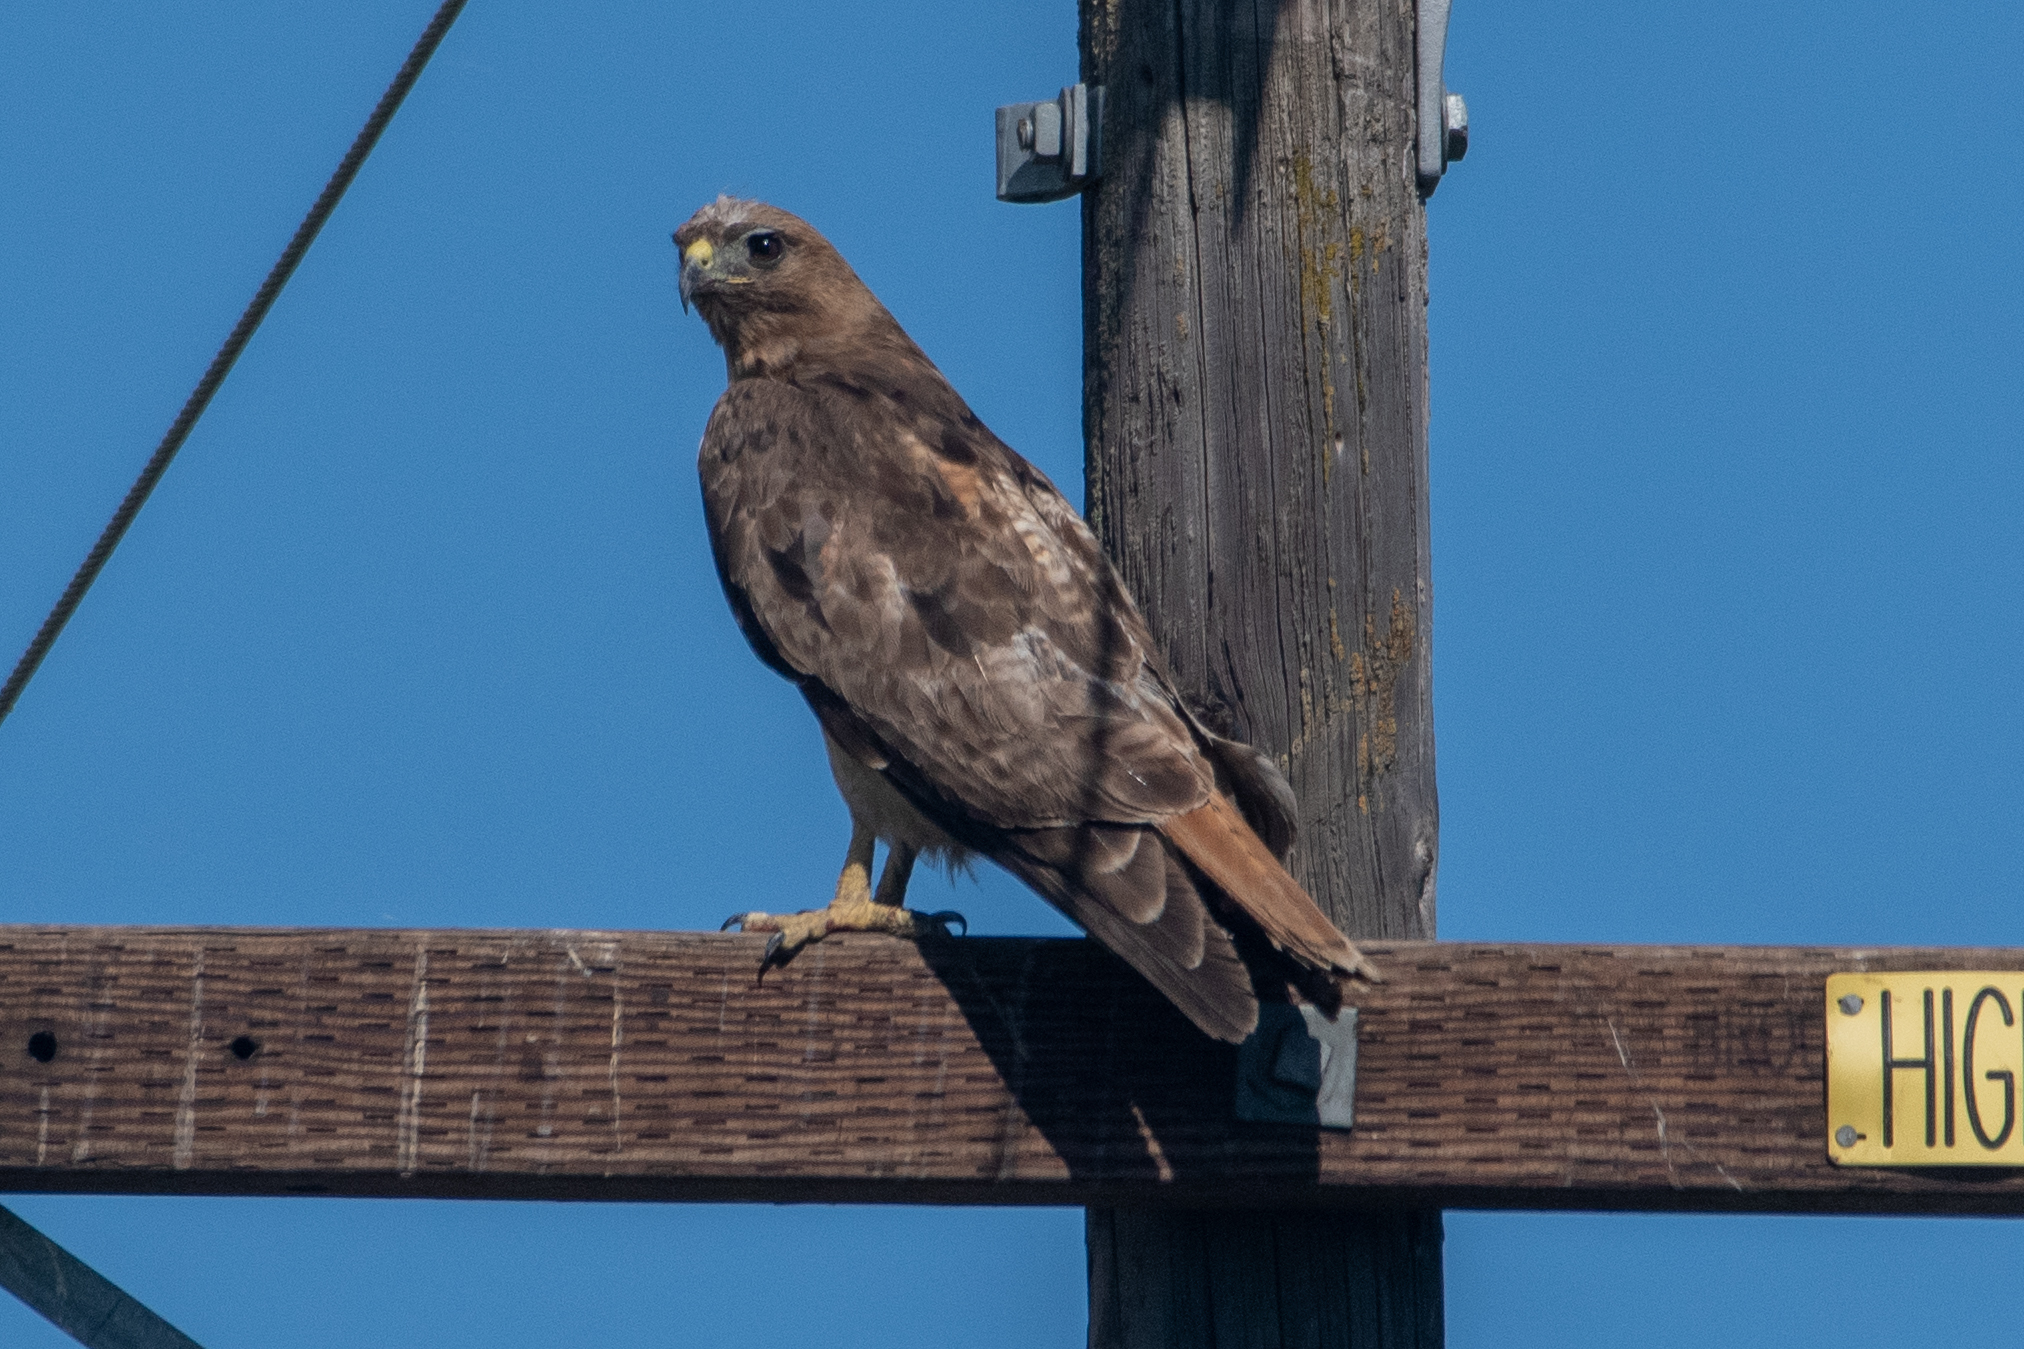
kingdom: Animalia
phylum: Chordata
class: Aves
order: Accipitriformes
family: Accipitridae
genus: Buteo
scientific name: Buteo jamaicensis
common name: Red-tailed hawk
